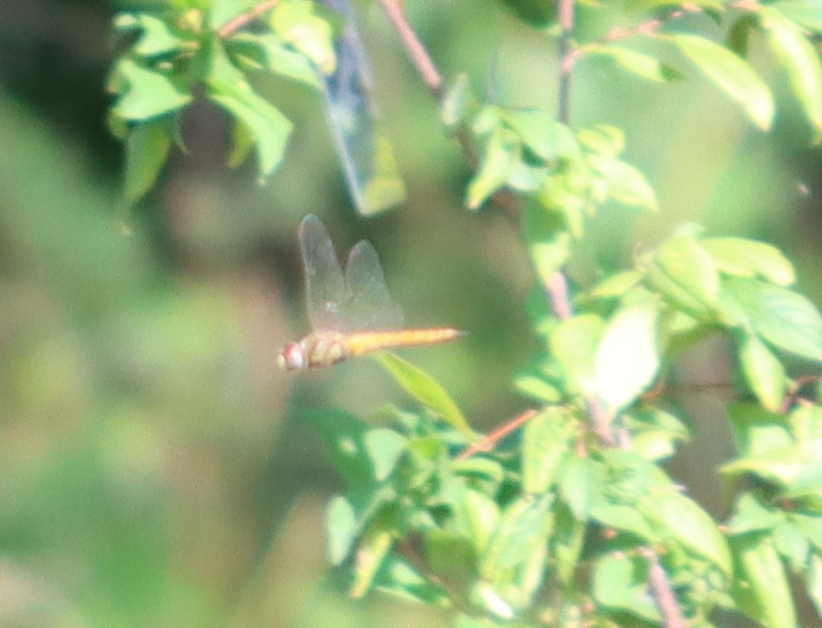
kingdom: Animalia
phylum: Arthropoda
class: Insecta
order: Odonata
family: Libellulidae
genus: Pantala
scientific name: Pantala flavescens
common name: Wandering glider
